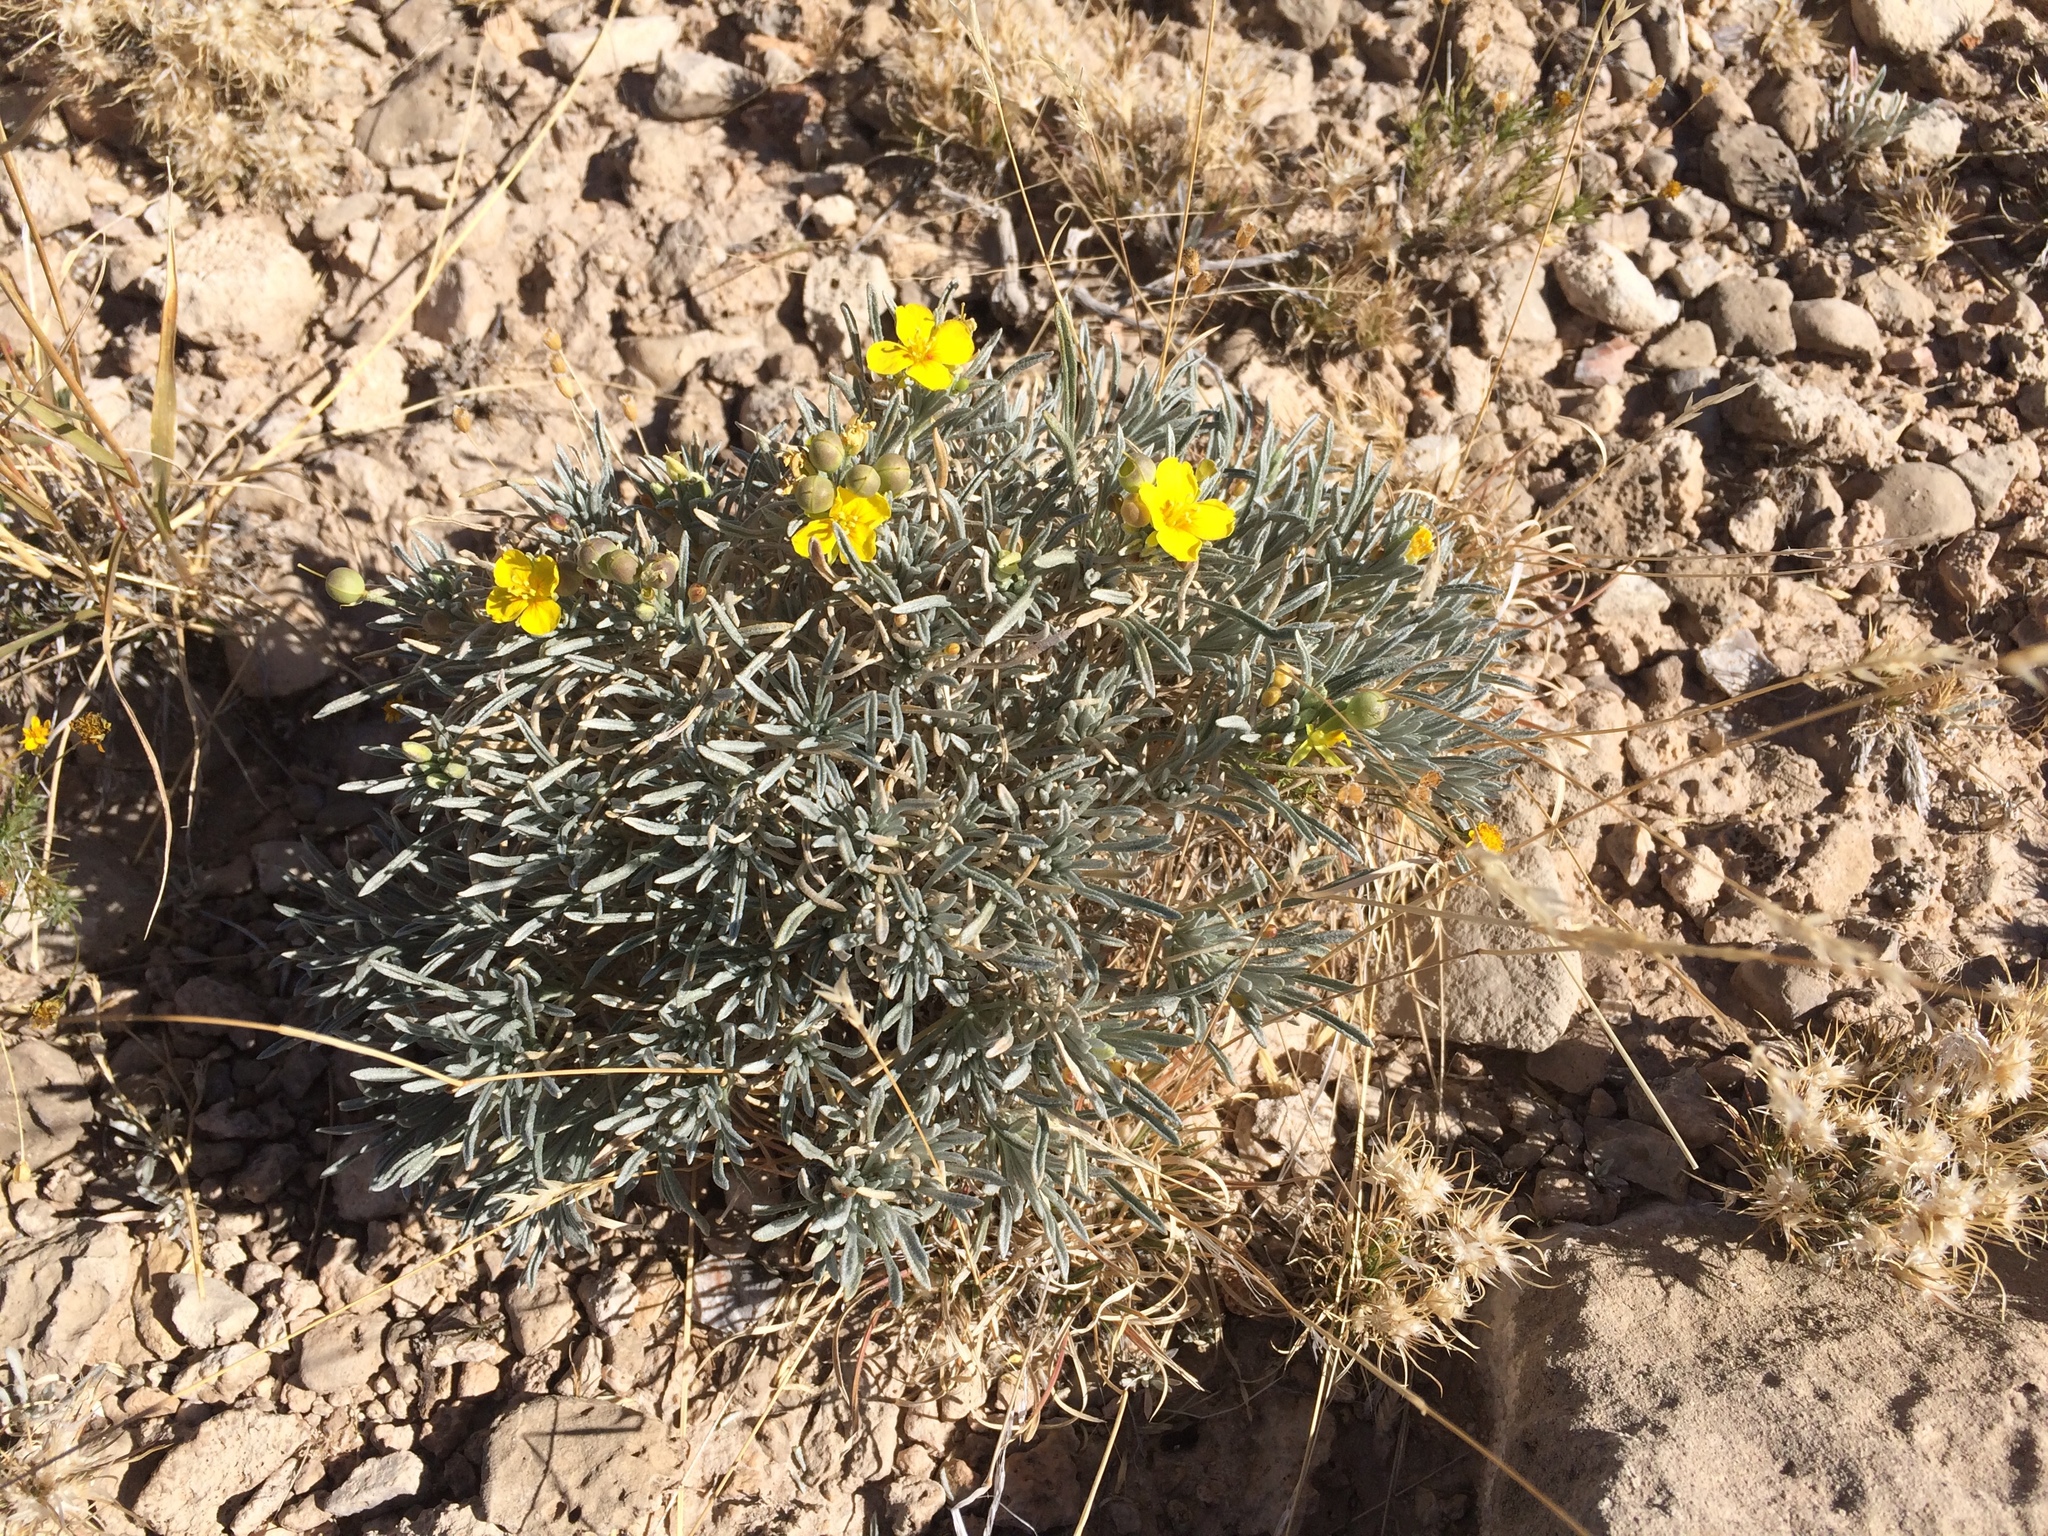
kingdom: Plantae
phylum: Tracheophyta
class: Magnoliopsida
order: Brassicales
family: Brassicaceae
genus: Physaria
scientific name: Physaria fendleri
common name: Fendler's bladderpod
